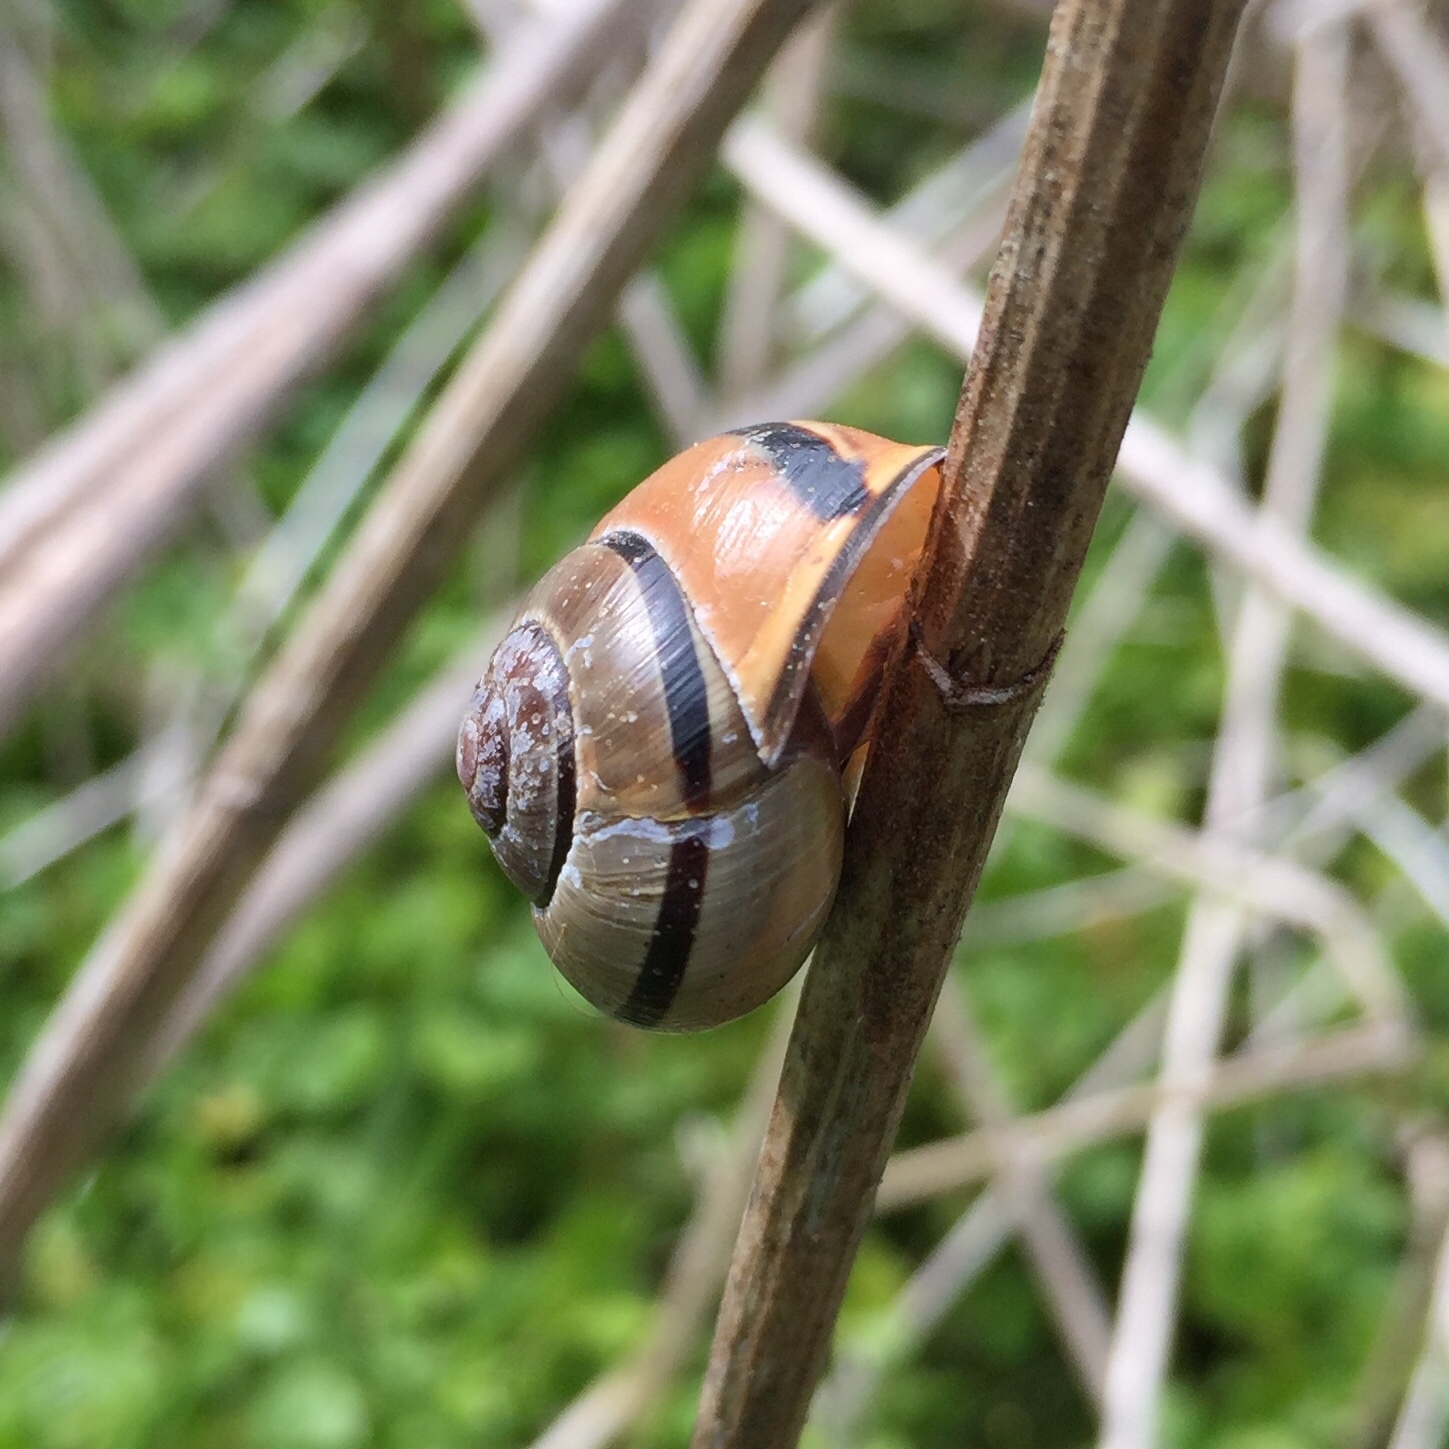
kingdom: Animalia
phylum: Mollusca
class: Gastropoda
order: Stylommatophora
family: Helicidae
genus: Cepaea
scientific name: Cepaea nemoralis
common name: Grovesnail
